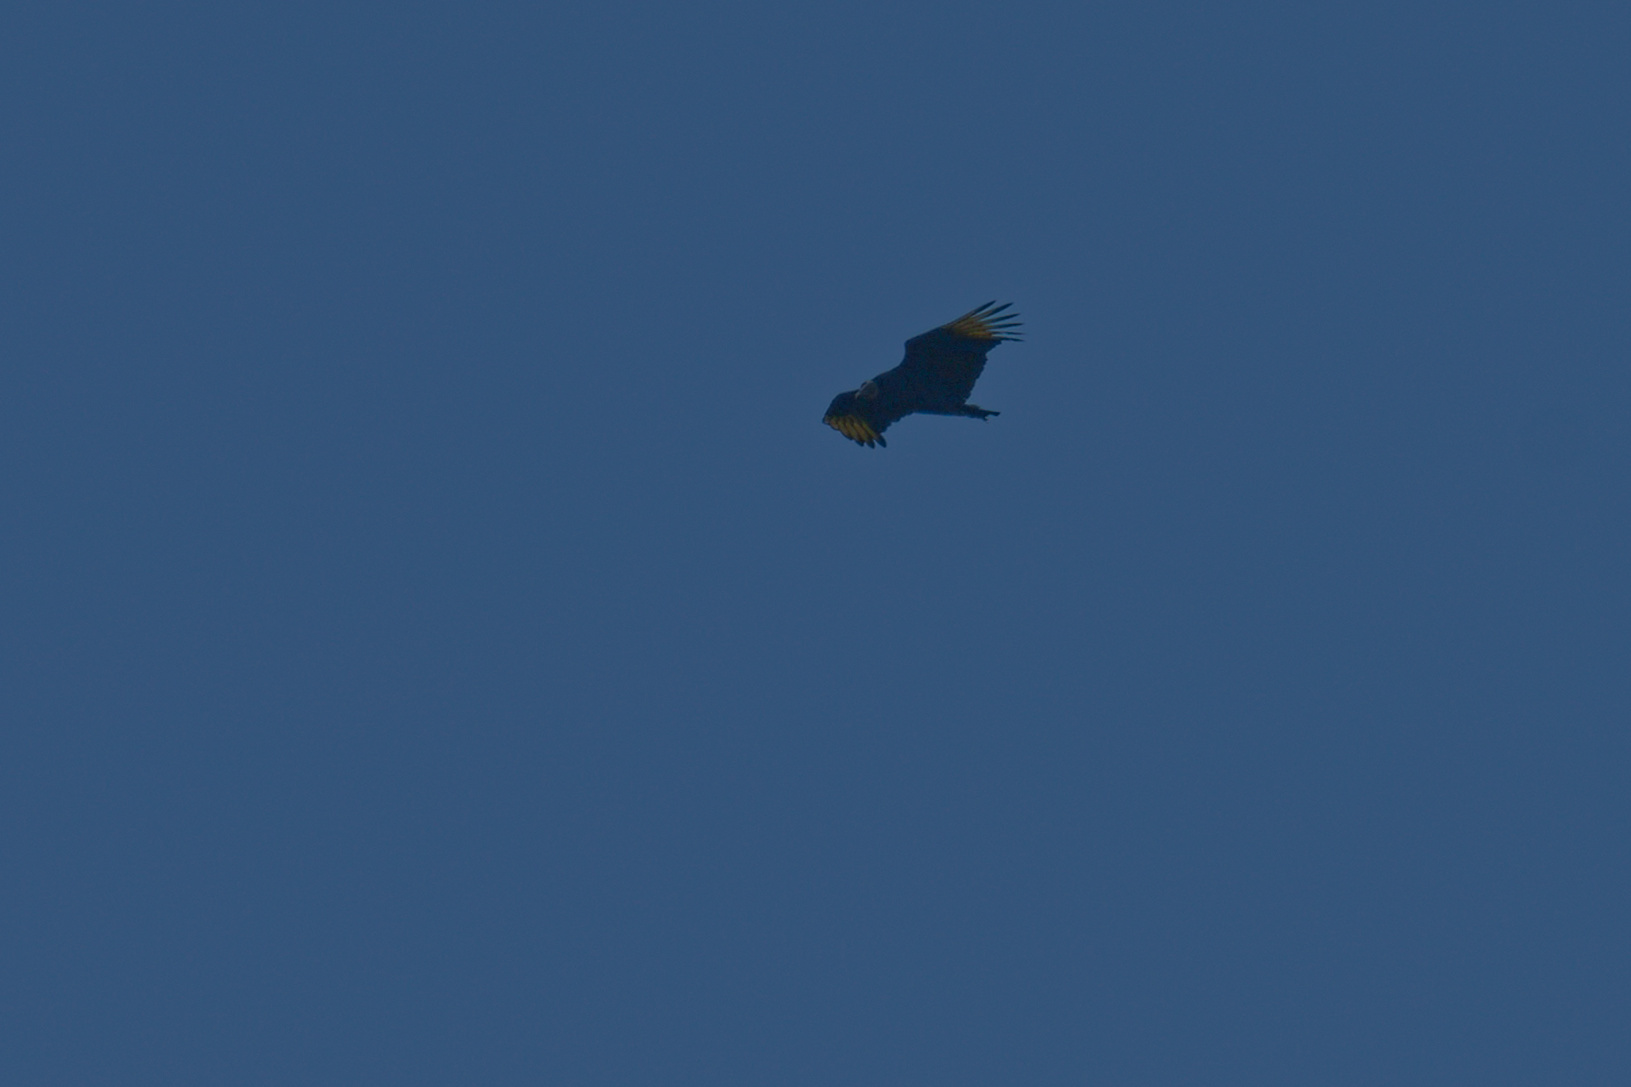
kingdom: Animalia
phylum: Chordata
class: Aves
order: Accipitriformes
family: Cathartidae
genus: Coragyps
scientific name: Coragyps atratus
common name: Black vulture
